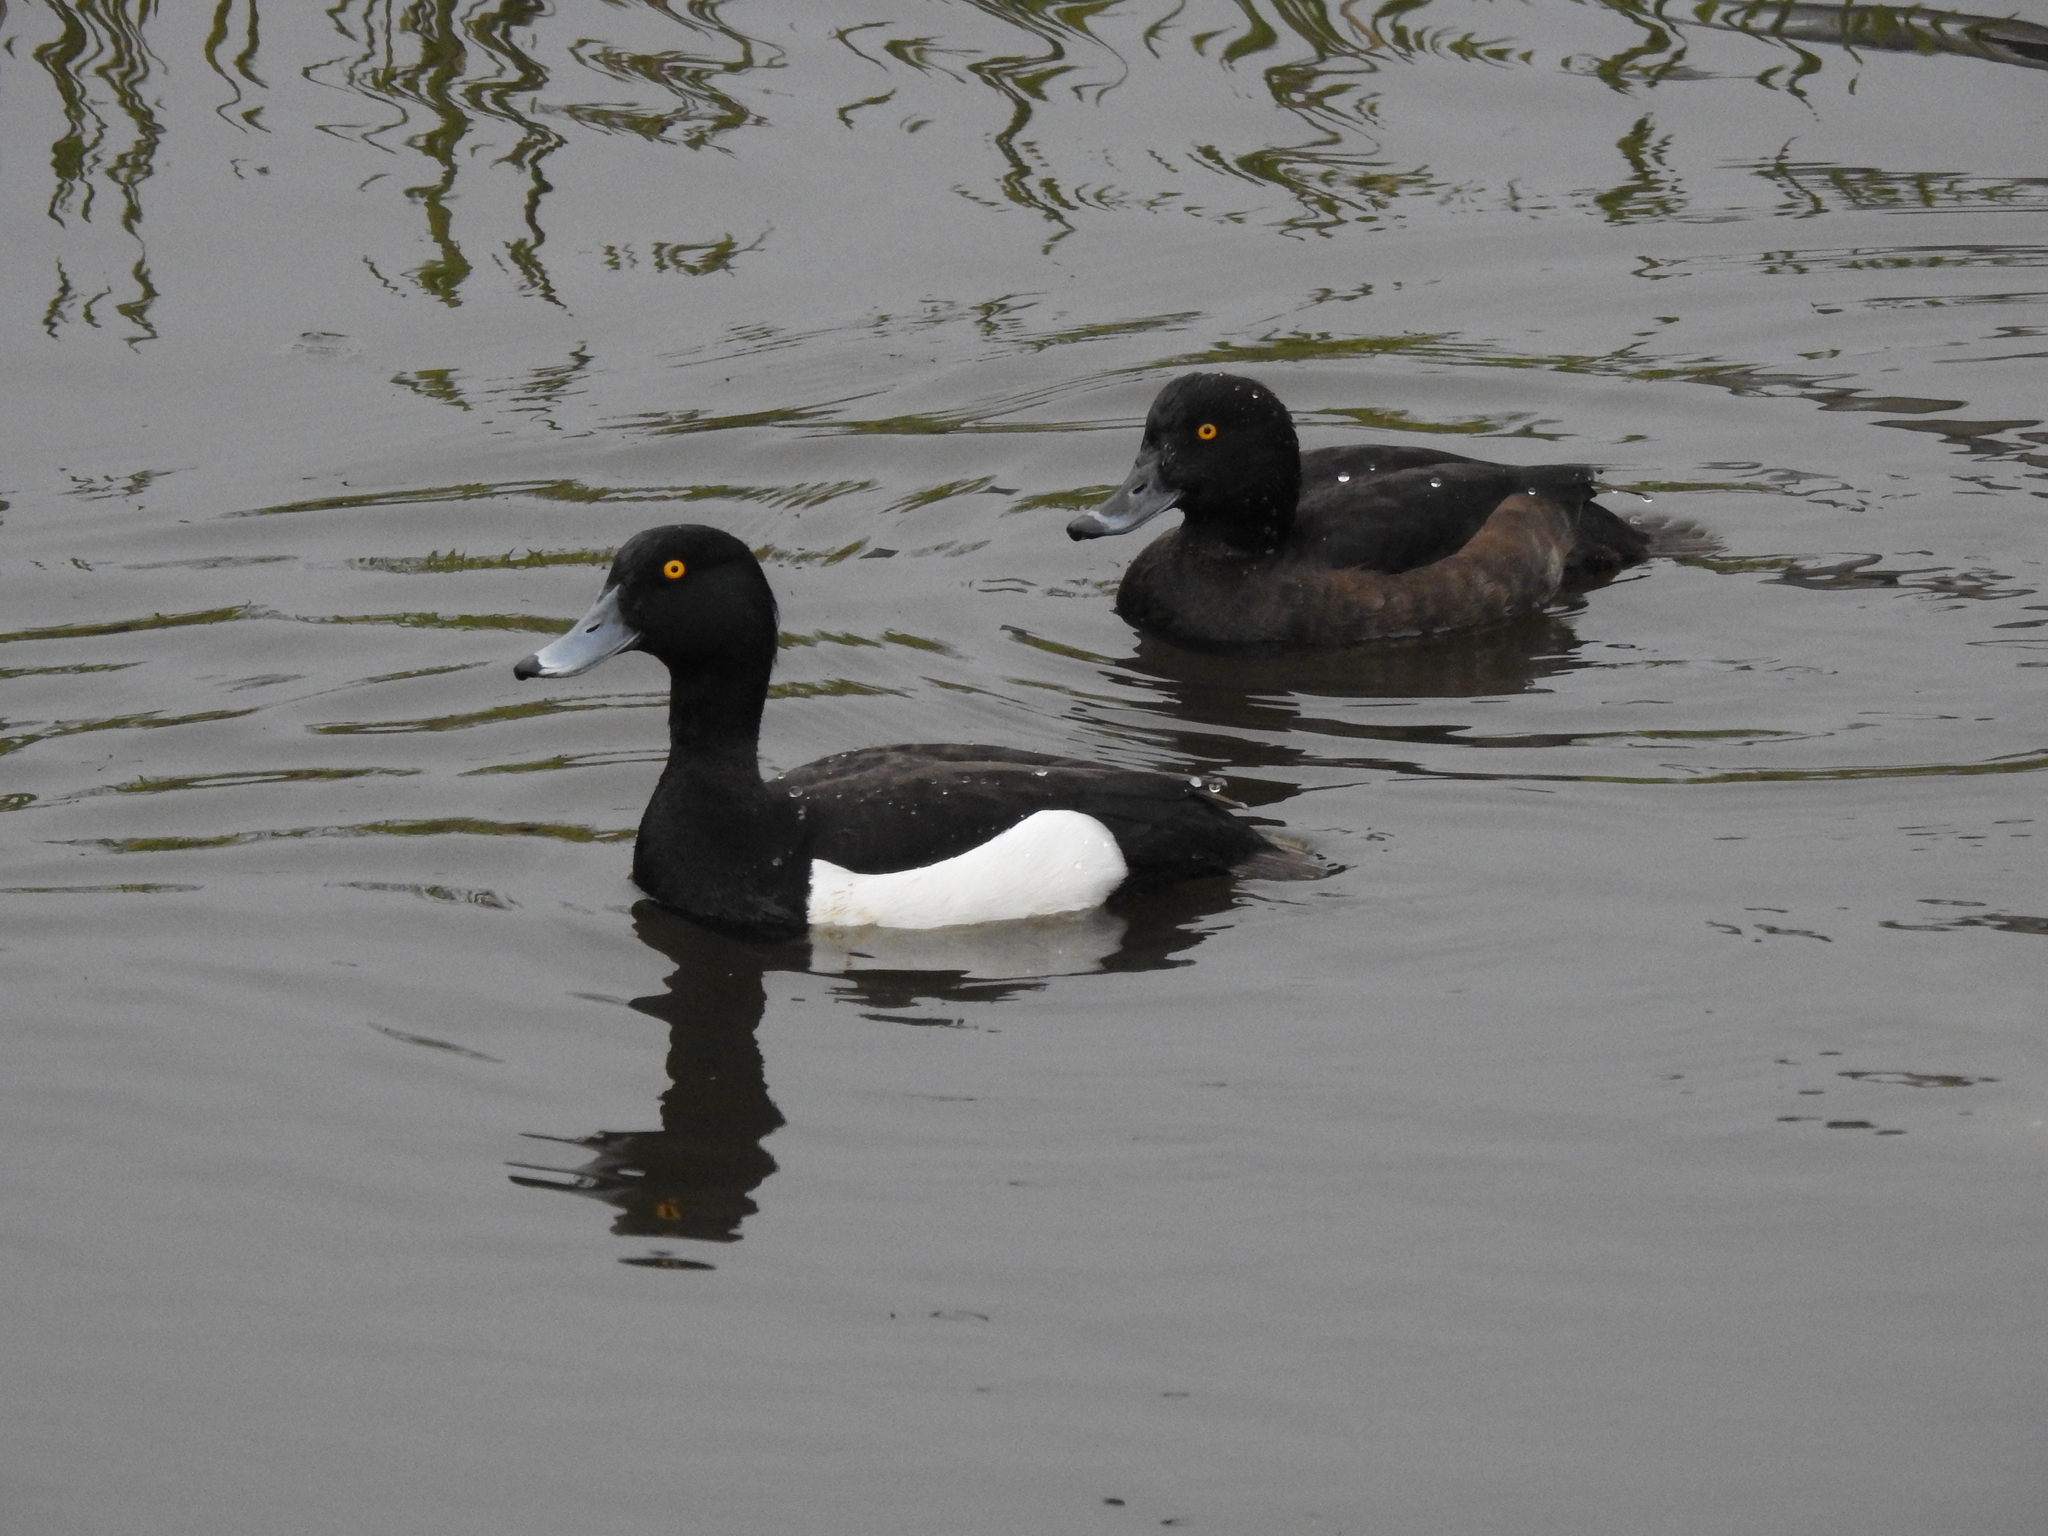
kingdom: Animalia
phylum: Chordata
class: Aves
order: Anseriformes
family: Anatidae
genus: Aythya
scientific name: Aythya fuligula
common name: Tufted duck
